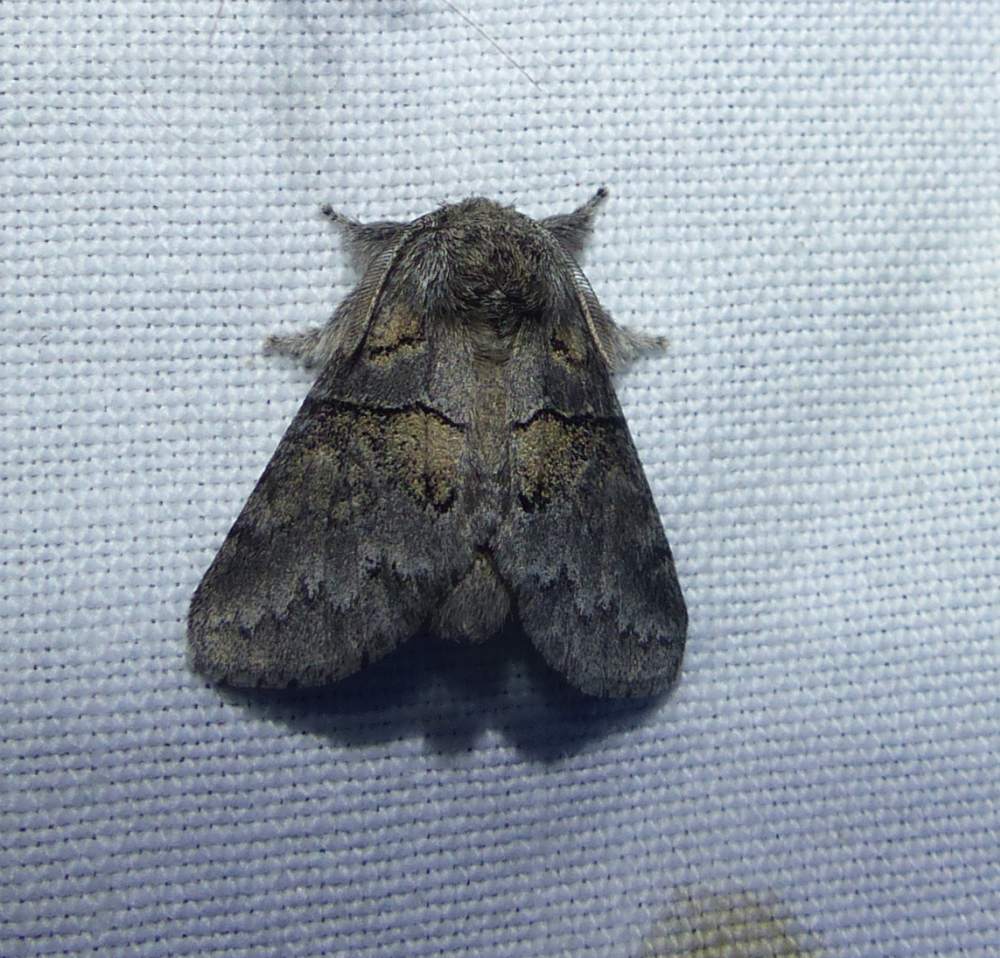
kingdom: Animalia
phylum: Arthropoda
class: Insecta
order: Lepidoptera
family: Notodontidae
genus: Gluphisia
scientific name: Gluphisia septentrionis
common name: Common gluphisia
